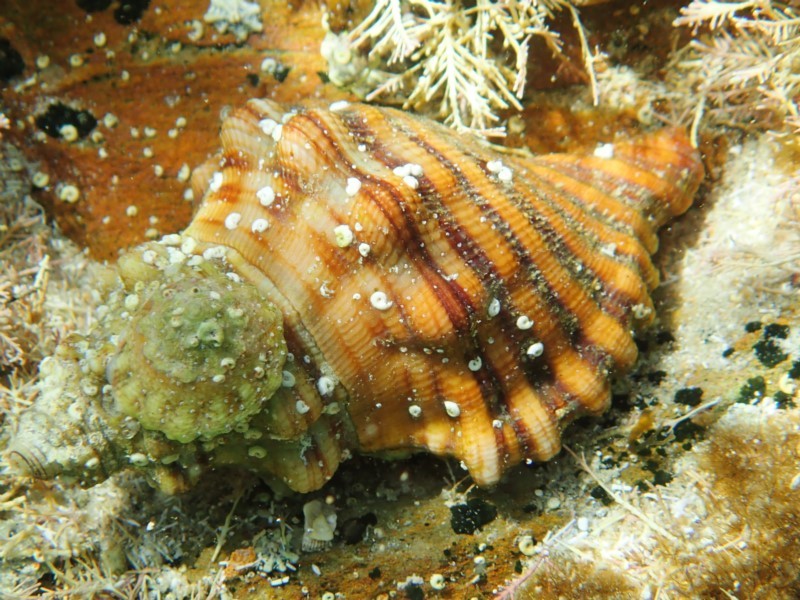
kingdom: Animalia
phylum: Mollusca
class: Gastropoda
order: Littorinimorpha
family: Cymatiidae
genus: Cabestana
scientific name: Cabestana spengleri
